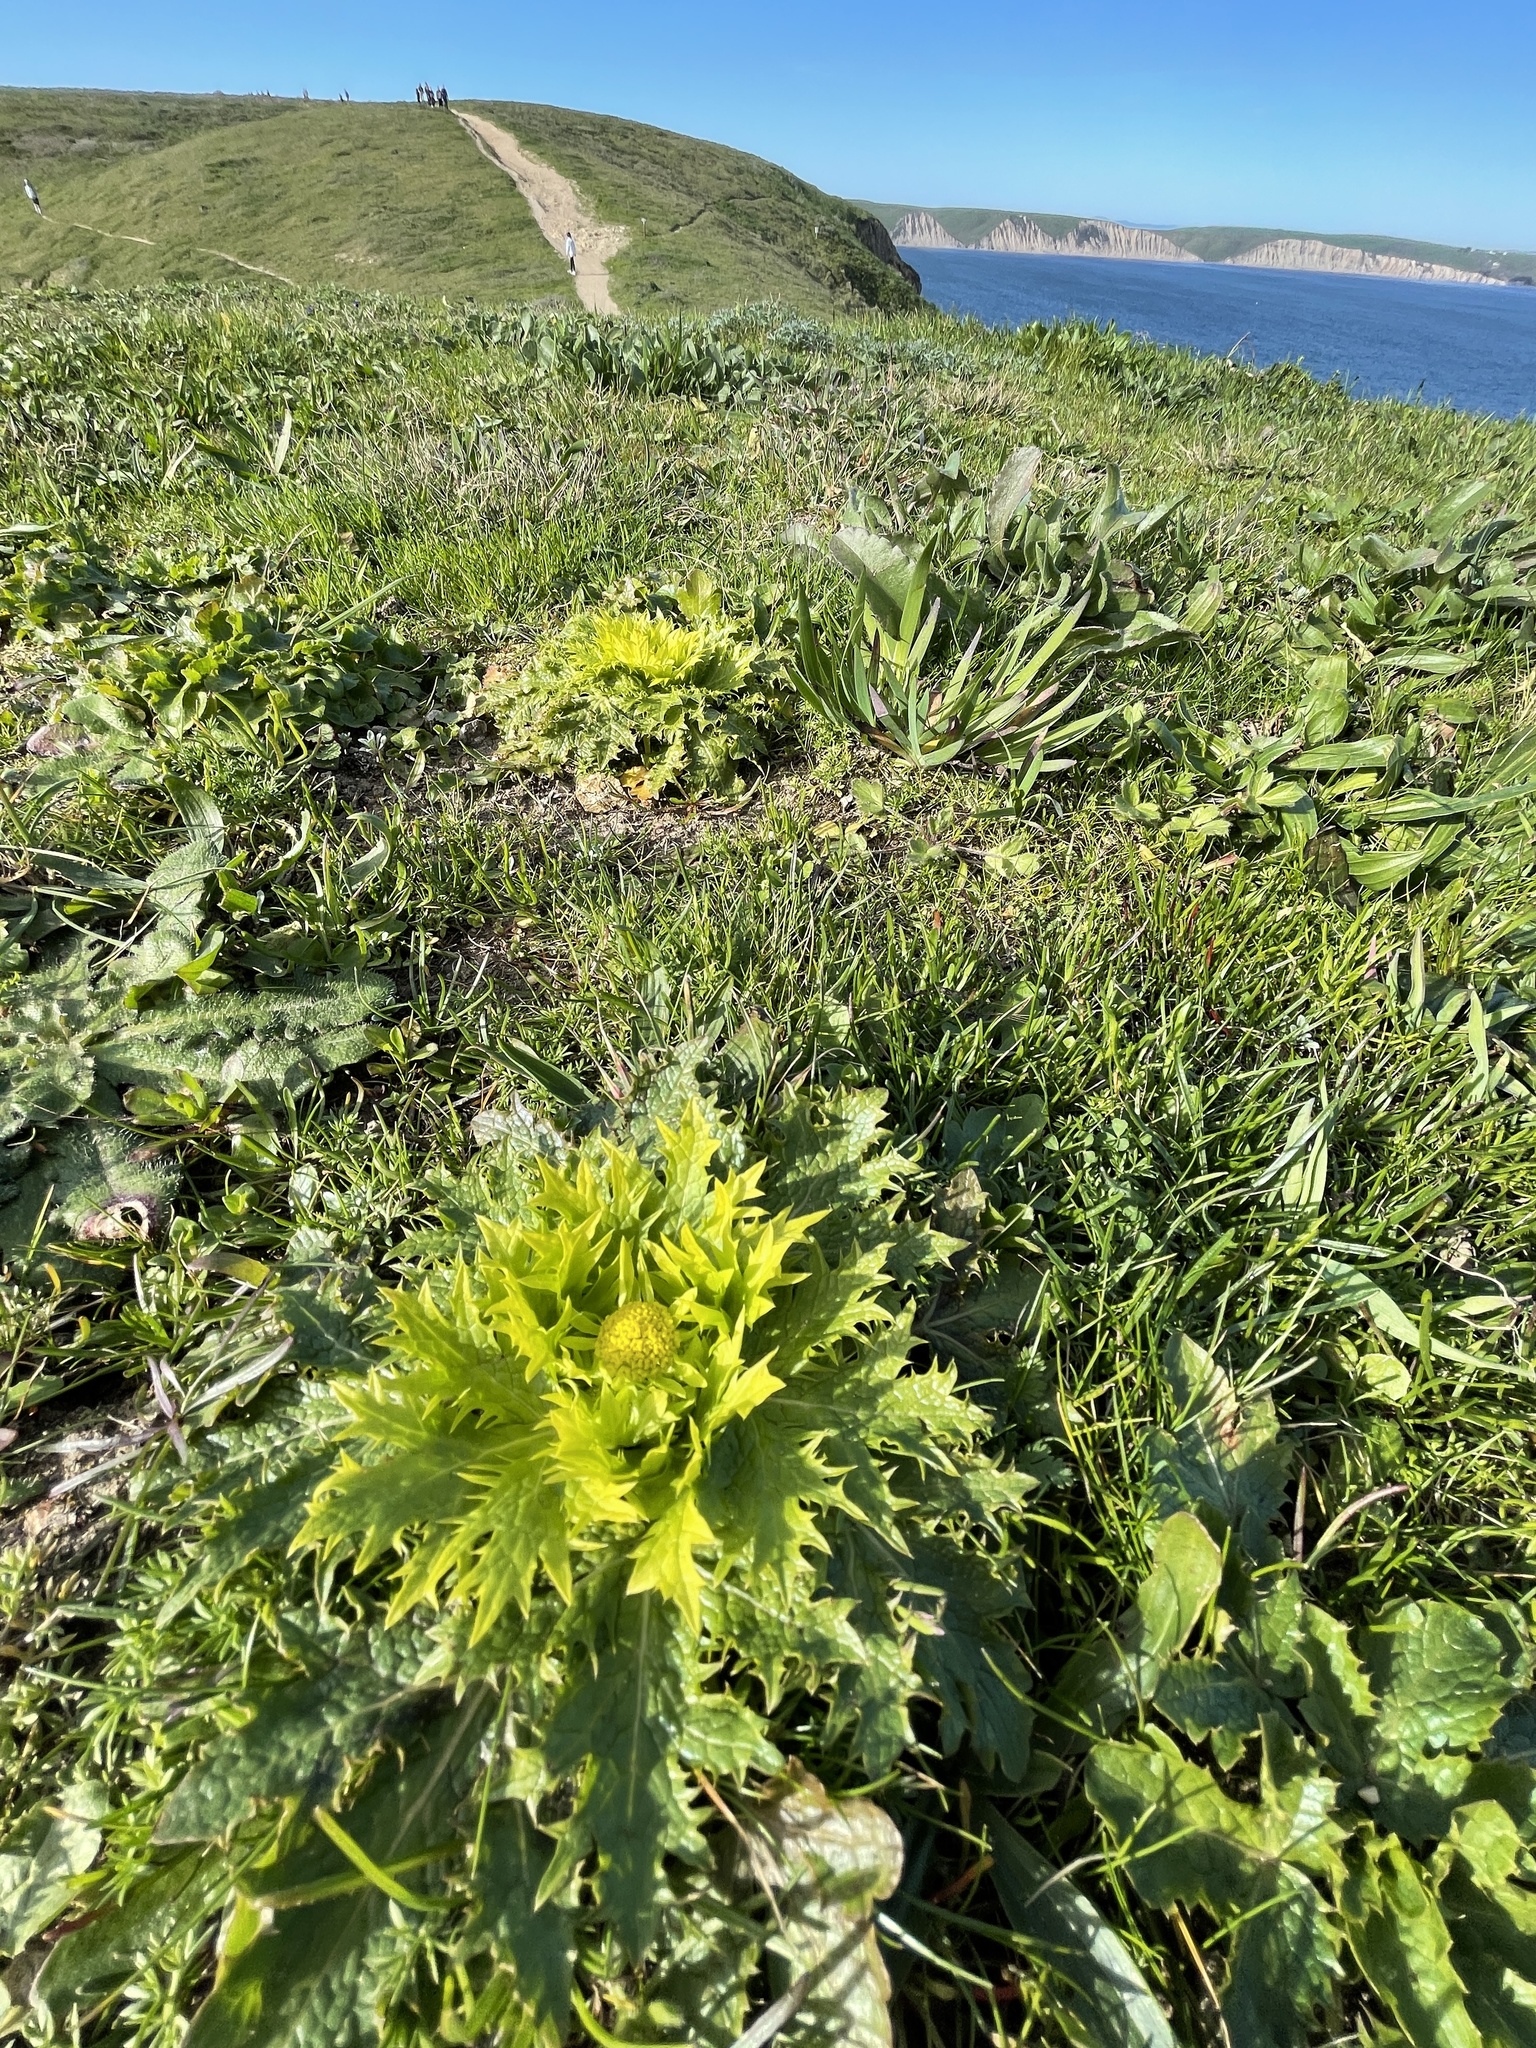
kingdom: Plantae
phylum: Tracheophyta
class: Magnoliopsida
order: Apiales
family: Apiaceae
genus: Sanicula
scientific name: Sanicula arctopoides
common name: Footsteps-of-spring
